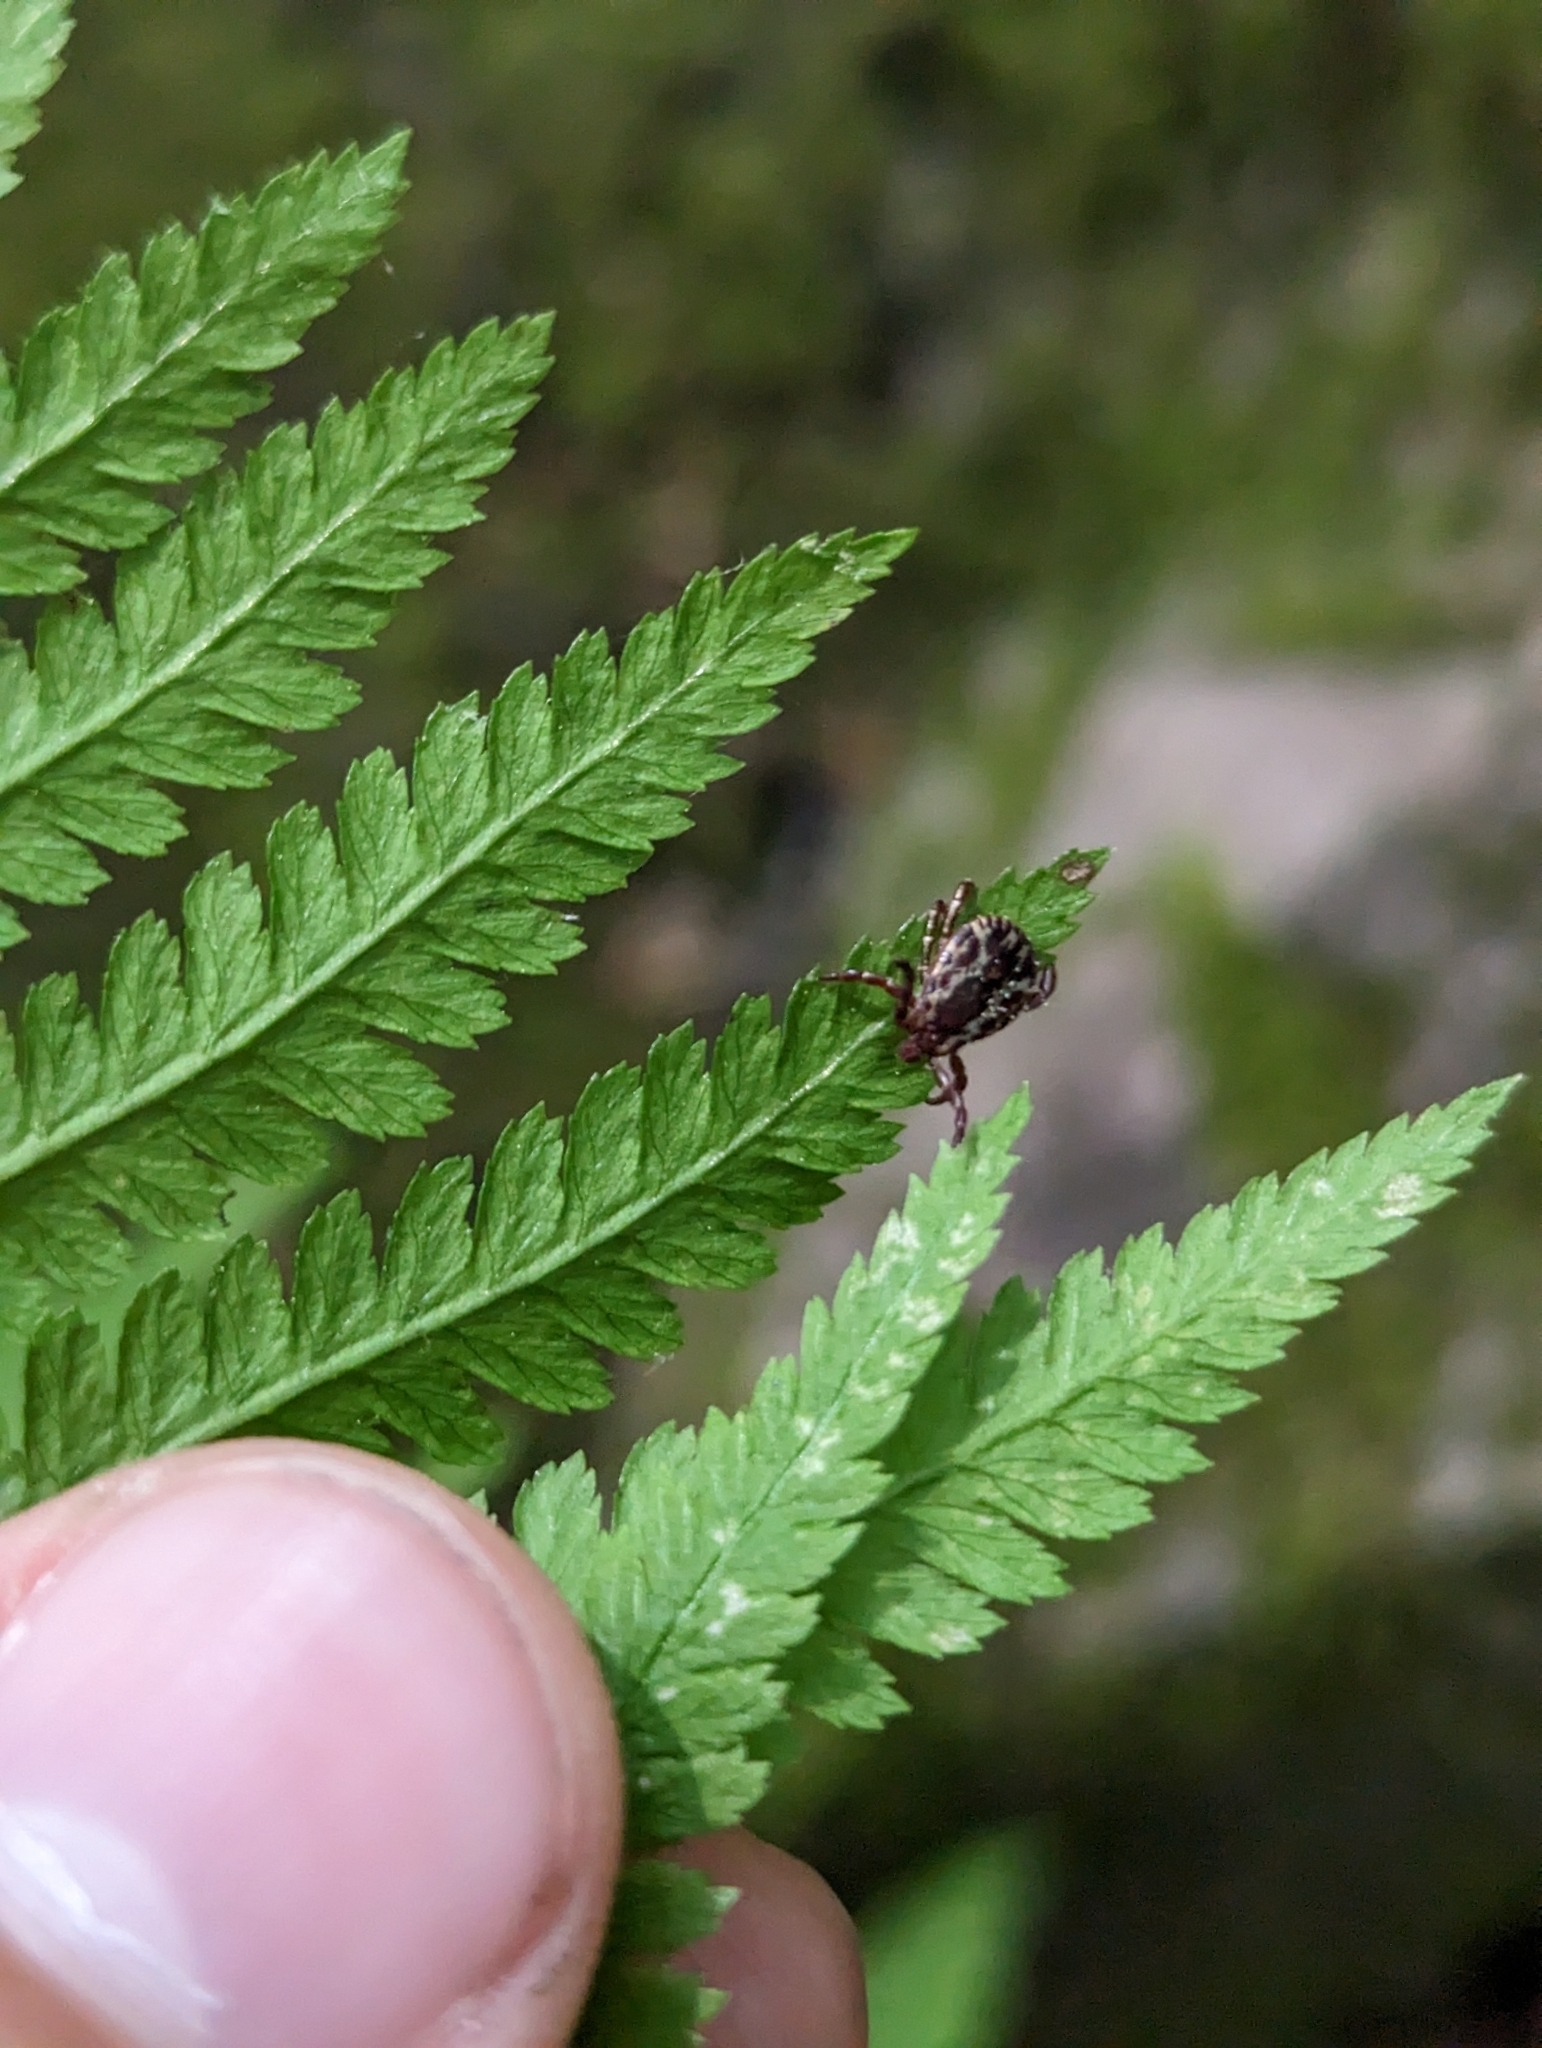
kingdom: Animalia
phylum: Arthropoda
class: Arachnida
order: Ixodida
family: Ixodidae
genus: Dermacentor
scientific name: Dermacentor variabilis
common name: American dog tick
